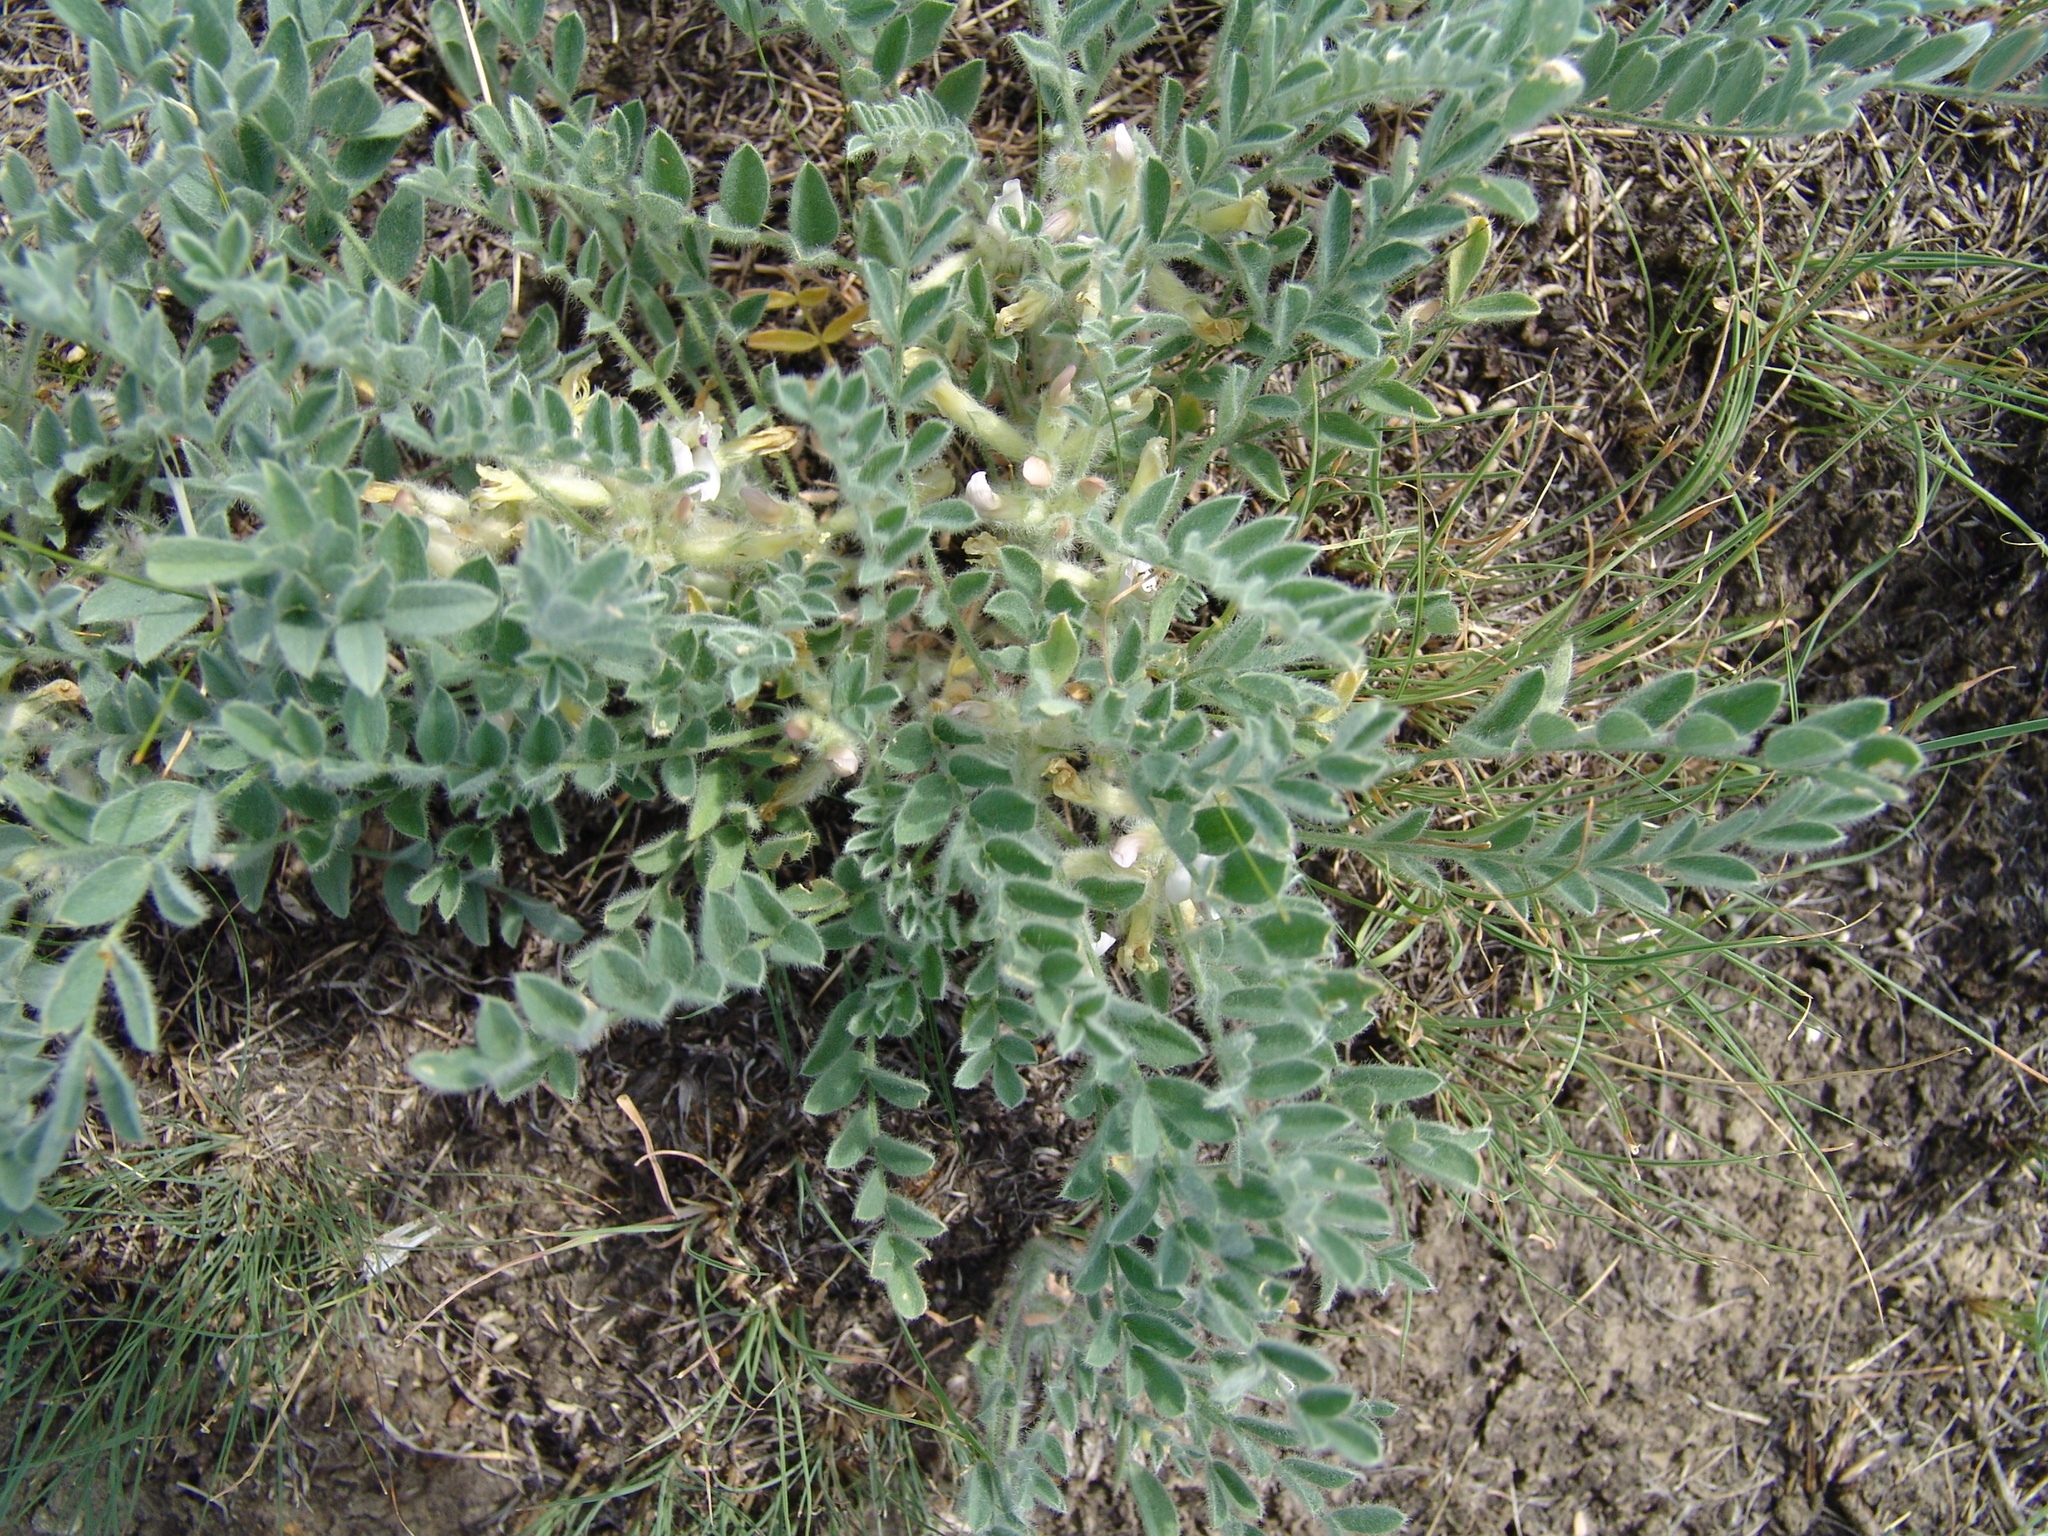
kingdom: Plantae
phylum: Tracheophyta
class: Magnoliopsida
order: Fabales
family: Fabaceae
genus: Astragalus
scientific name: Astragalus testiculatus
